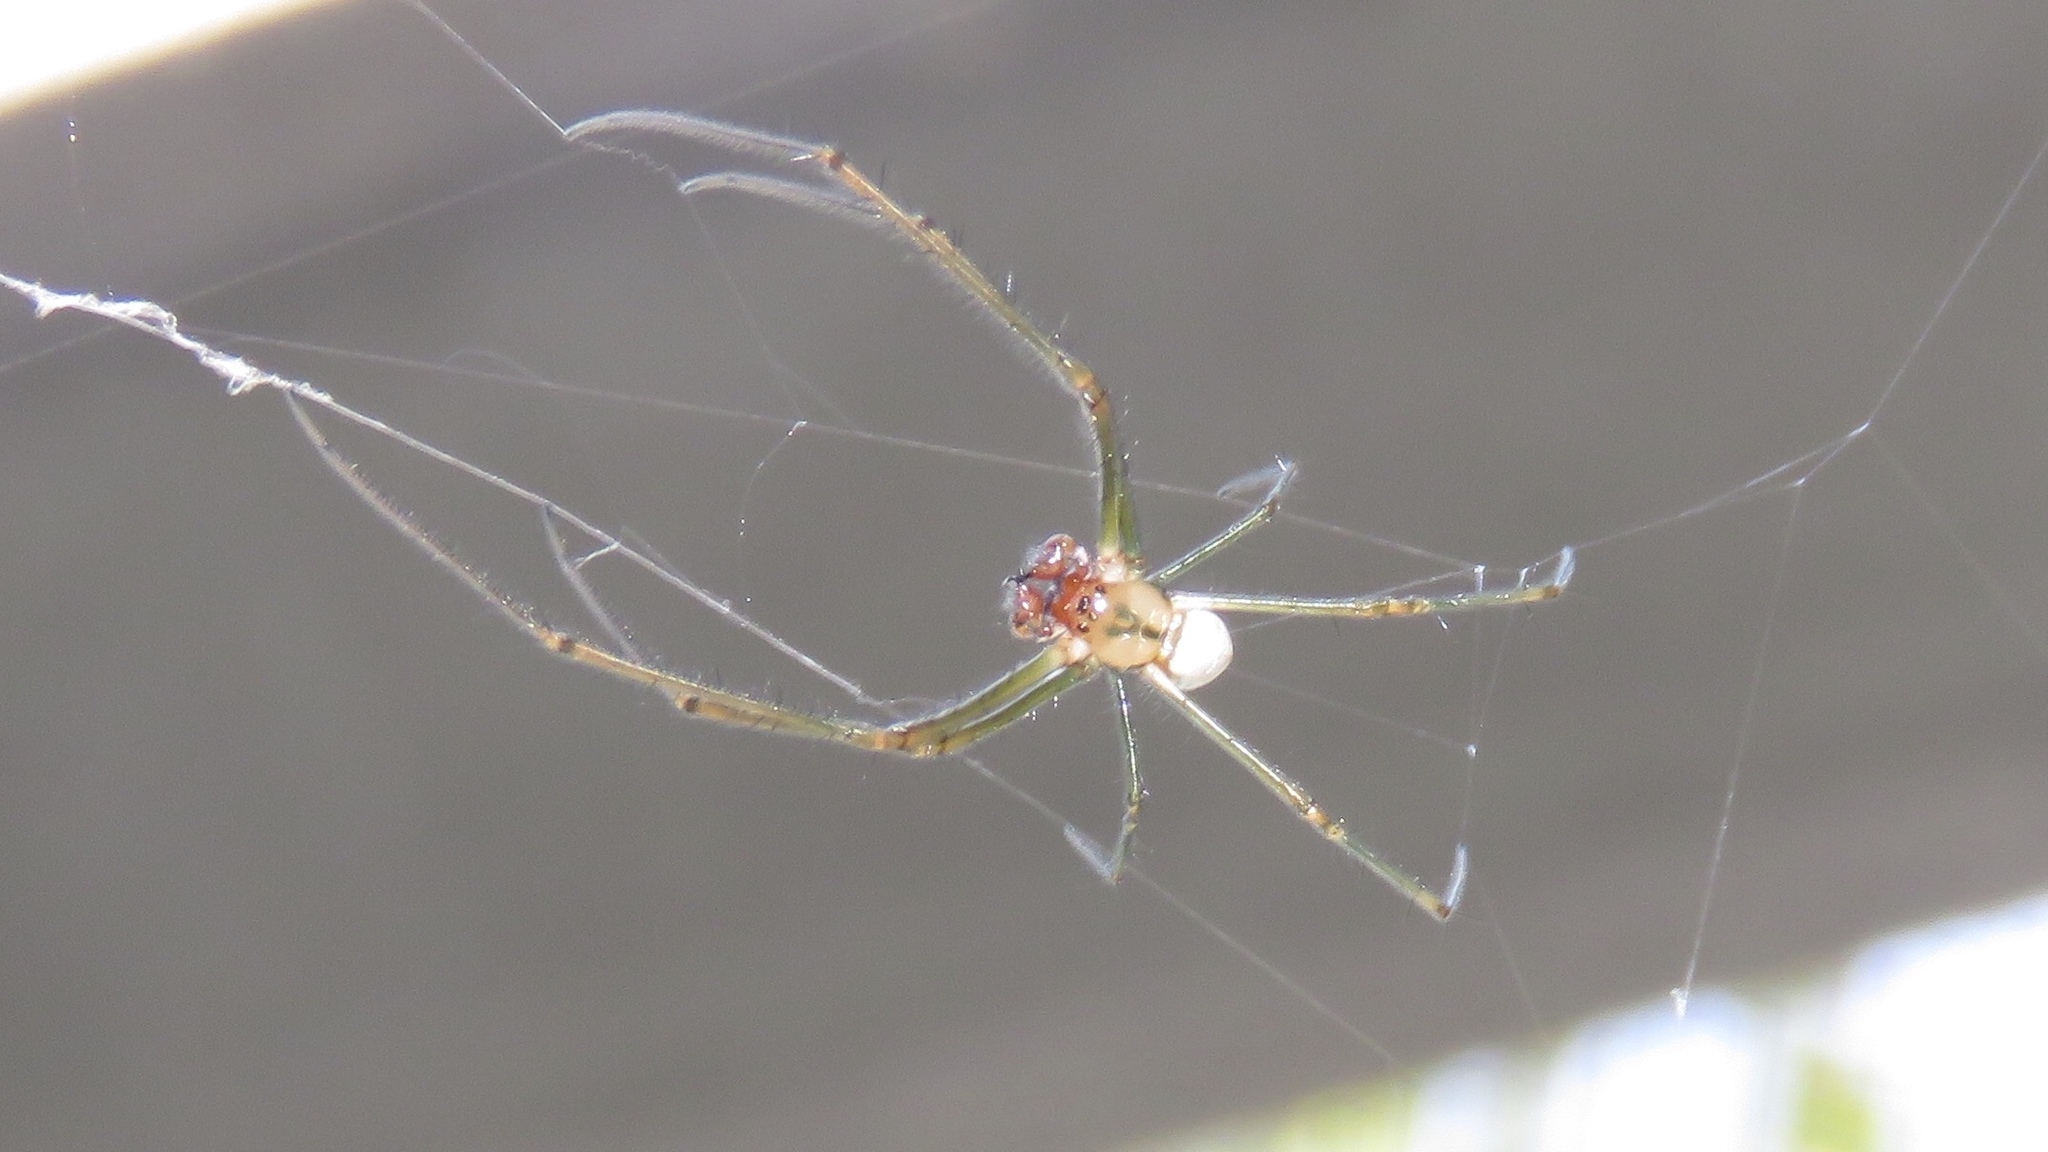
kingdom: Animalia
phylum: Arthropoda
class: Arachnida
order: Araneae
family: Tetragnathidae
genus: Leucauge
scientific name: Leucauge argyra
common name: Longjawed orb weavers
